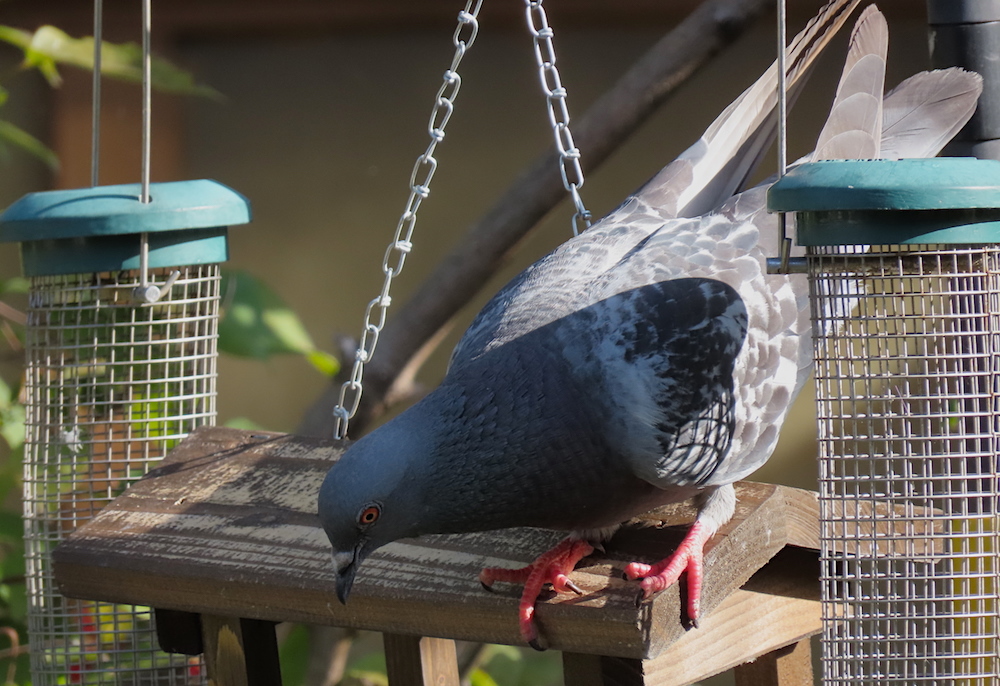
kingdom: Animalia
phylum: Chordata
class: Aves
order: Columbiformes
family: Columbidae
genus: Columba
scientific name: Columba livia
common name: Rock pigeon
